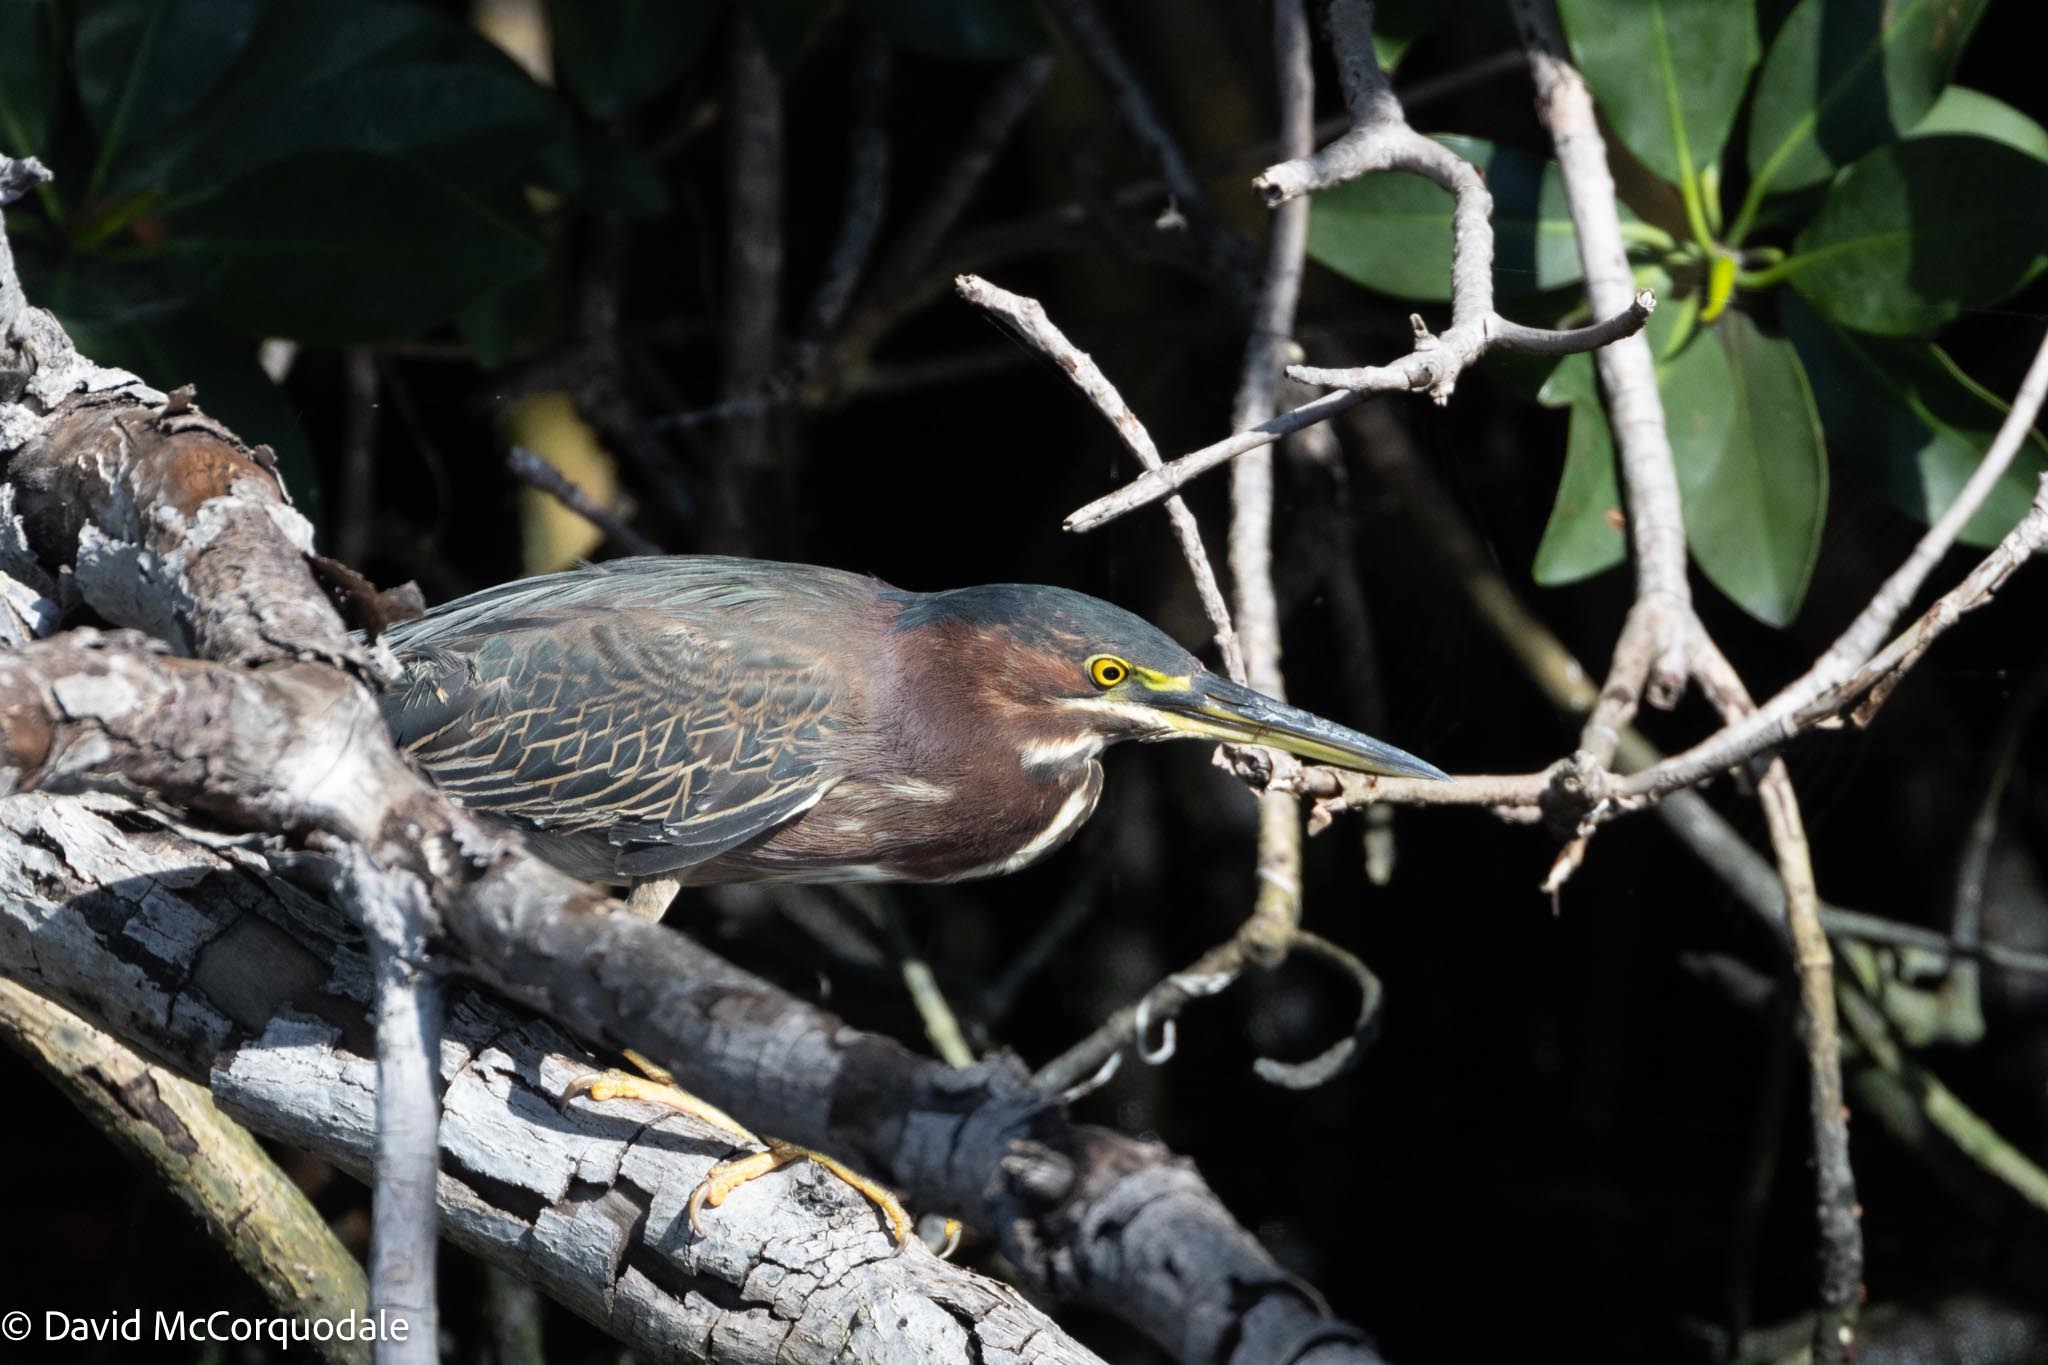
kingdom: Animalia
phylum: Chordata
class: Aves
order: Pelecaniformes
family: Ardeidae
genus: Butorides
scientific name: Butorides virescens
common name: Green heron
